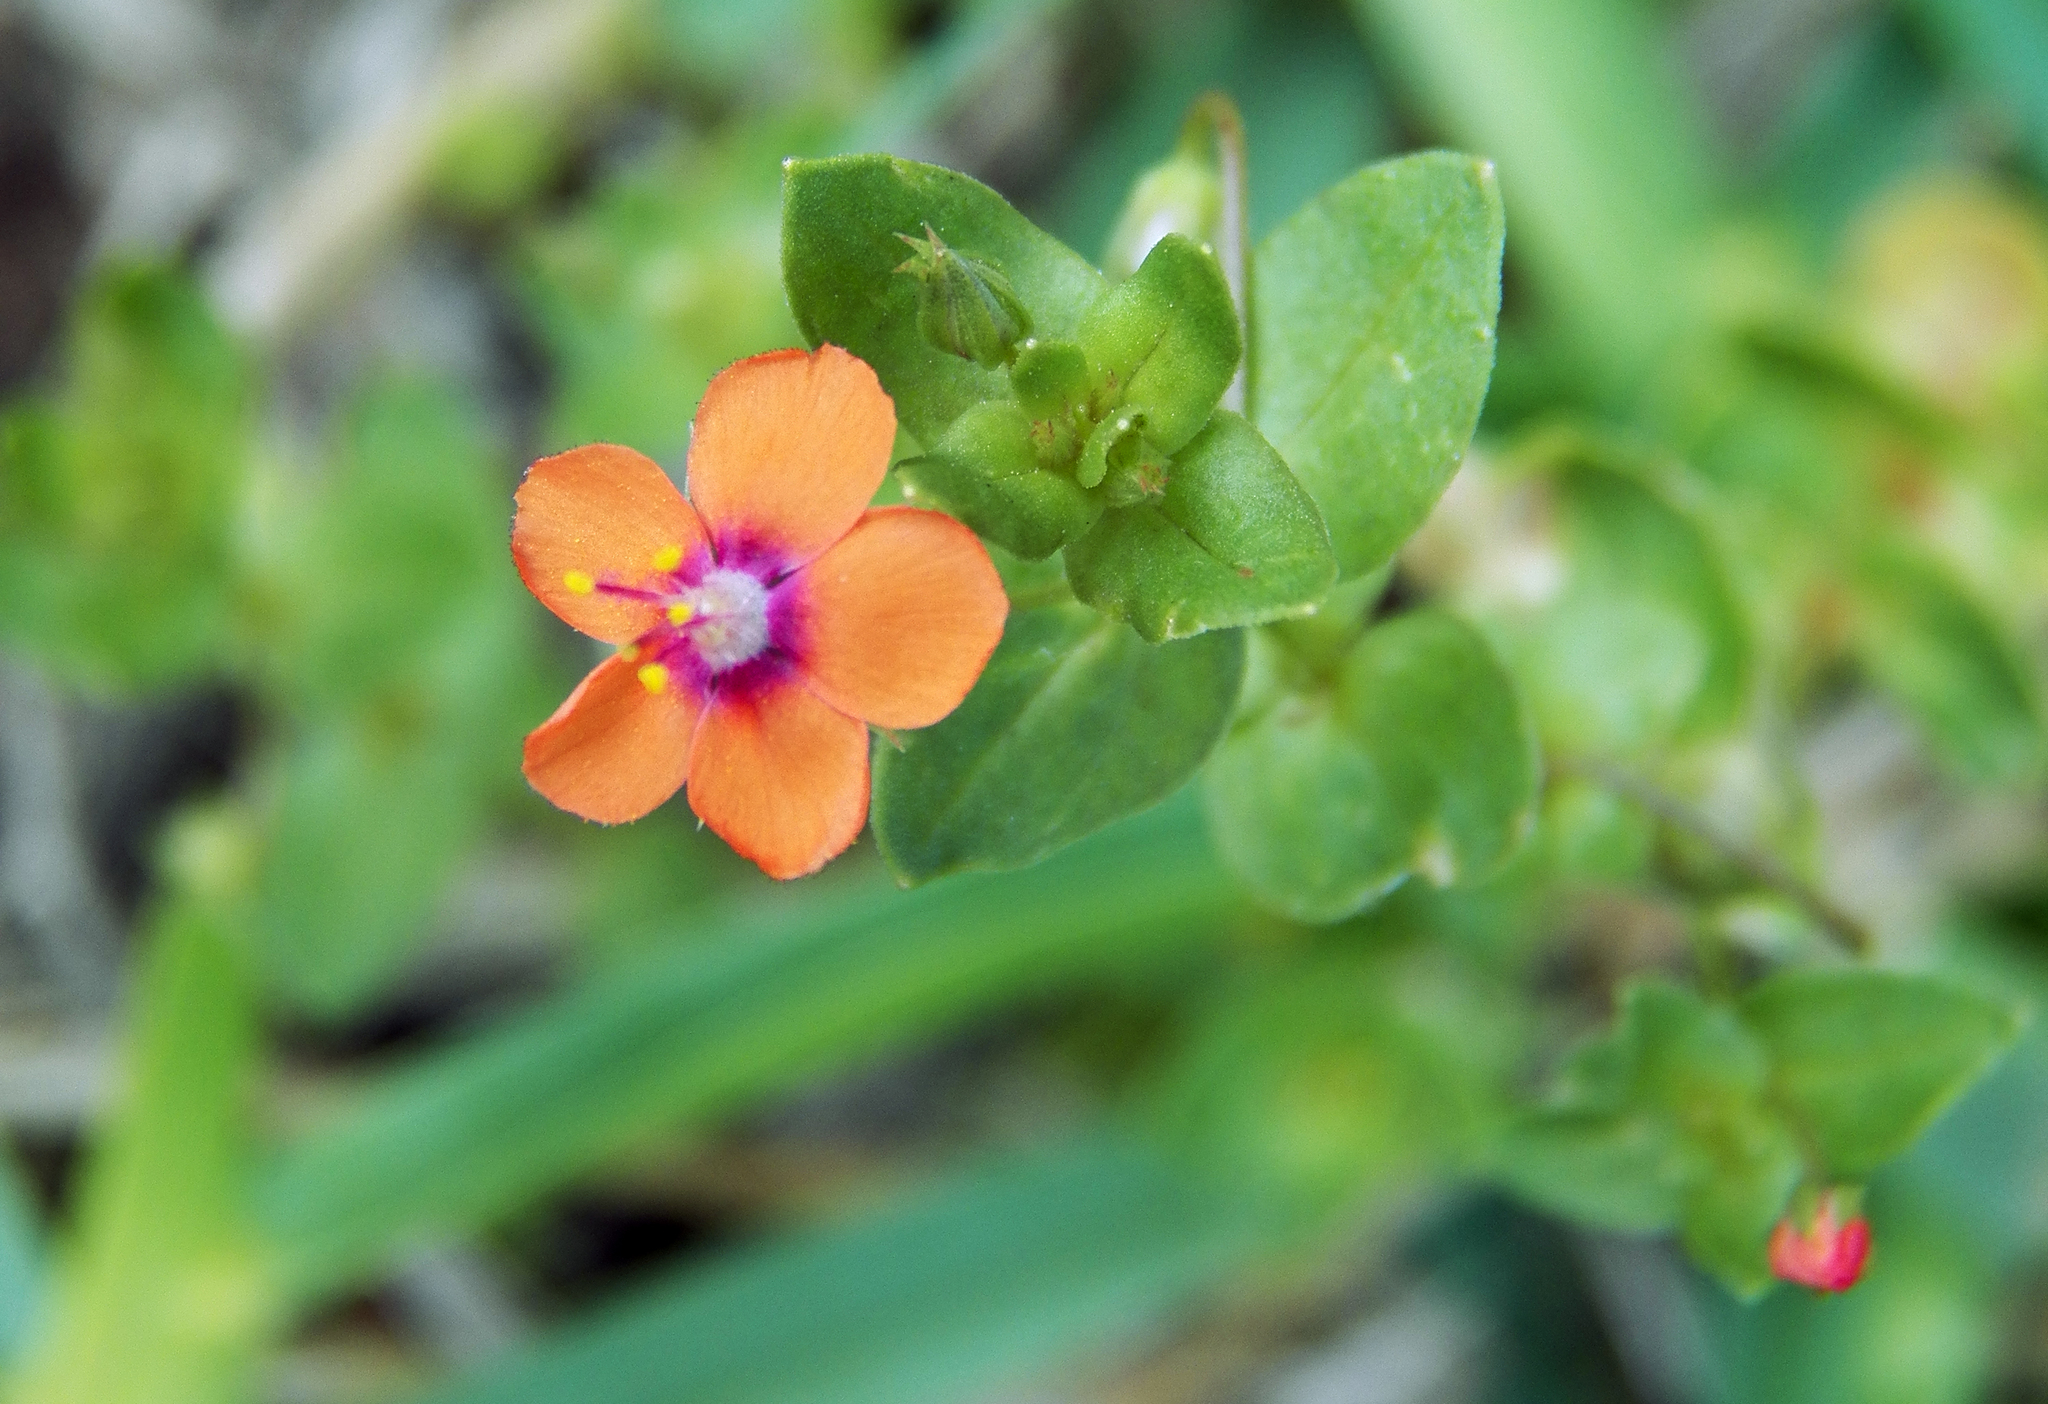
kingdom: Plantae
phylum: Tracheophyta
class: Magnoliopsida
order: Ericales
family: Primulaceae
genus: Lysimachia
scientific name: Lysimachia arvensis
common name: Scarlet pimpernel
